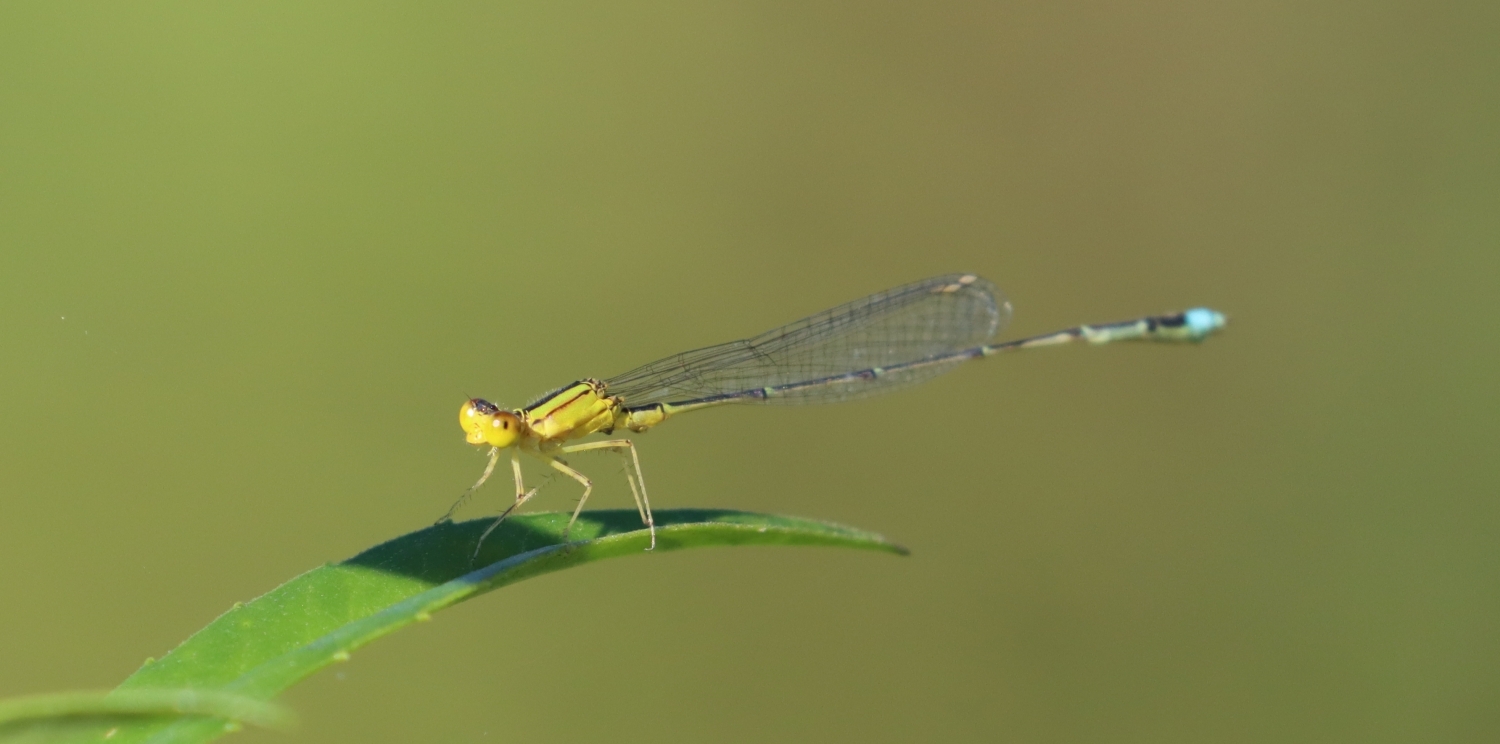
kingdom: Animalia
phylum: Arthropoda
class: Insecta
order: Odonata
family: Coenagrionidae
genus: Enallagma
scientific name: Enallagma vesperum
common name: Vesper bluet
